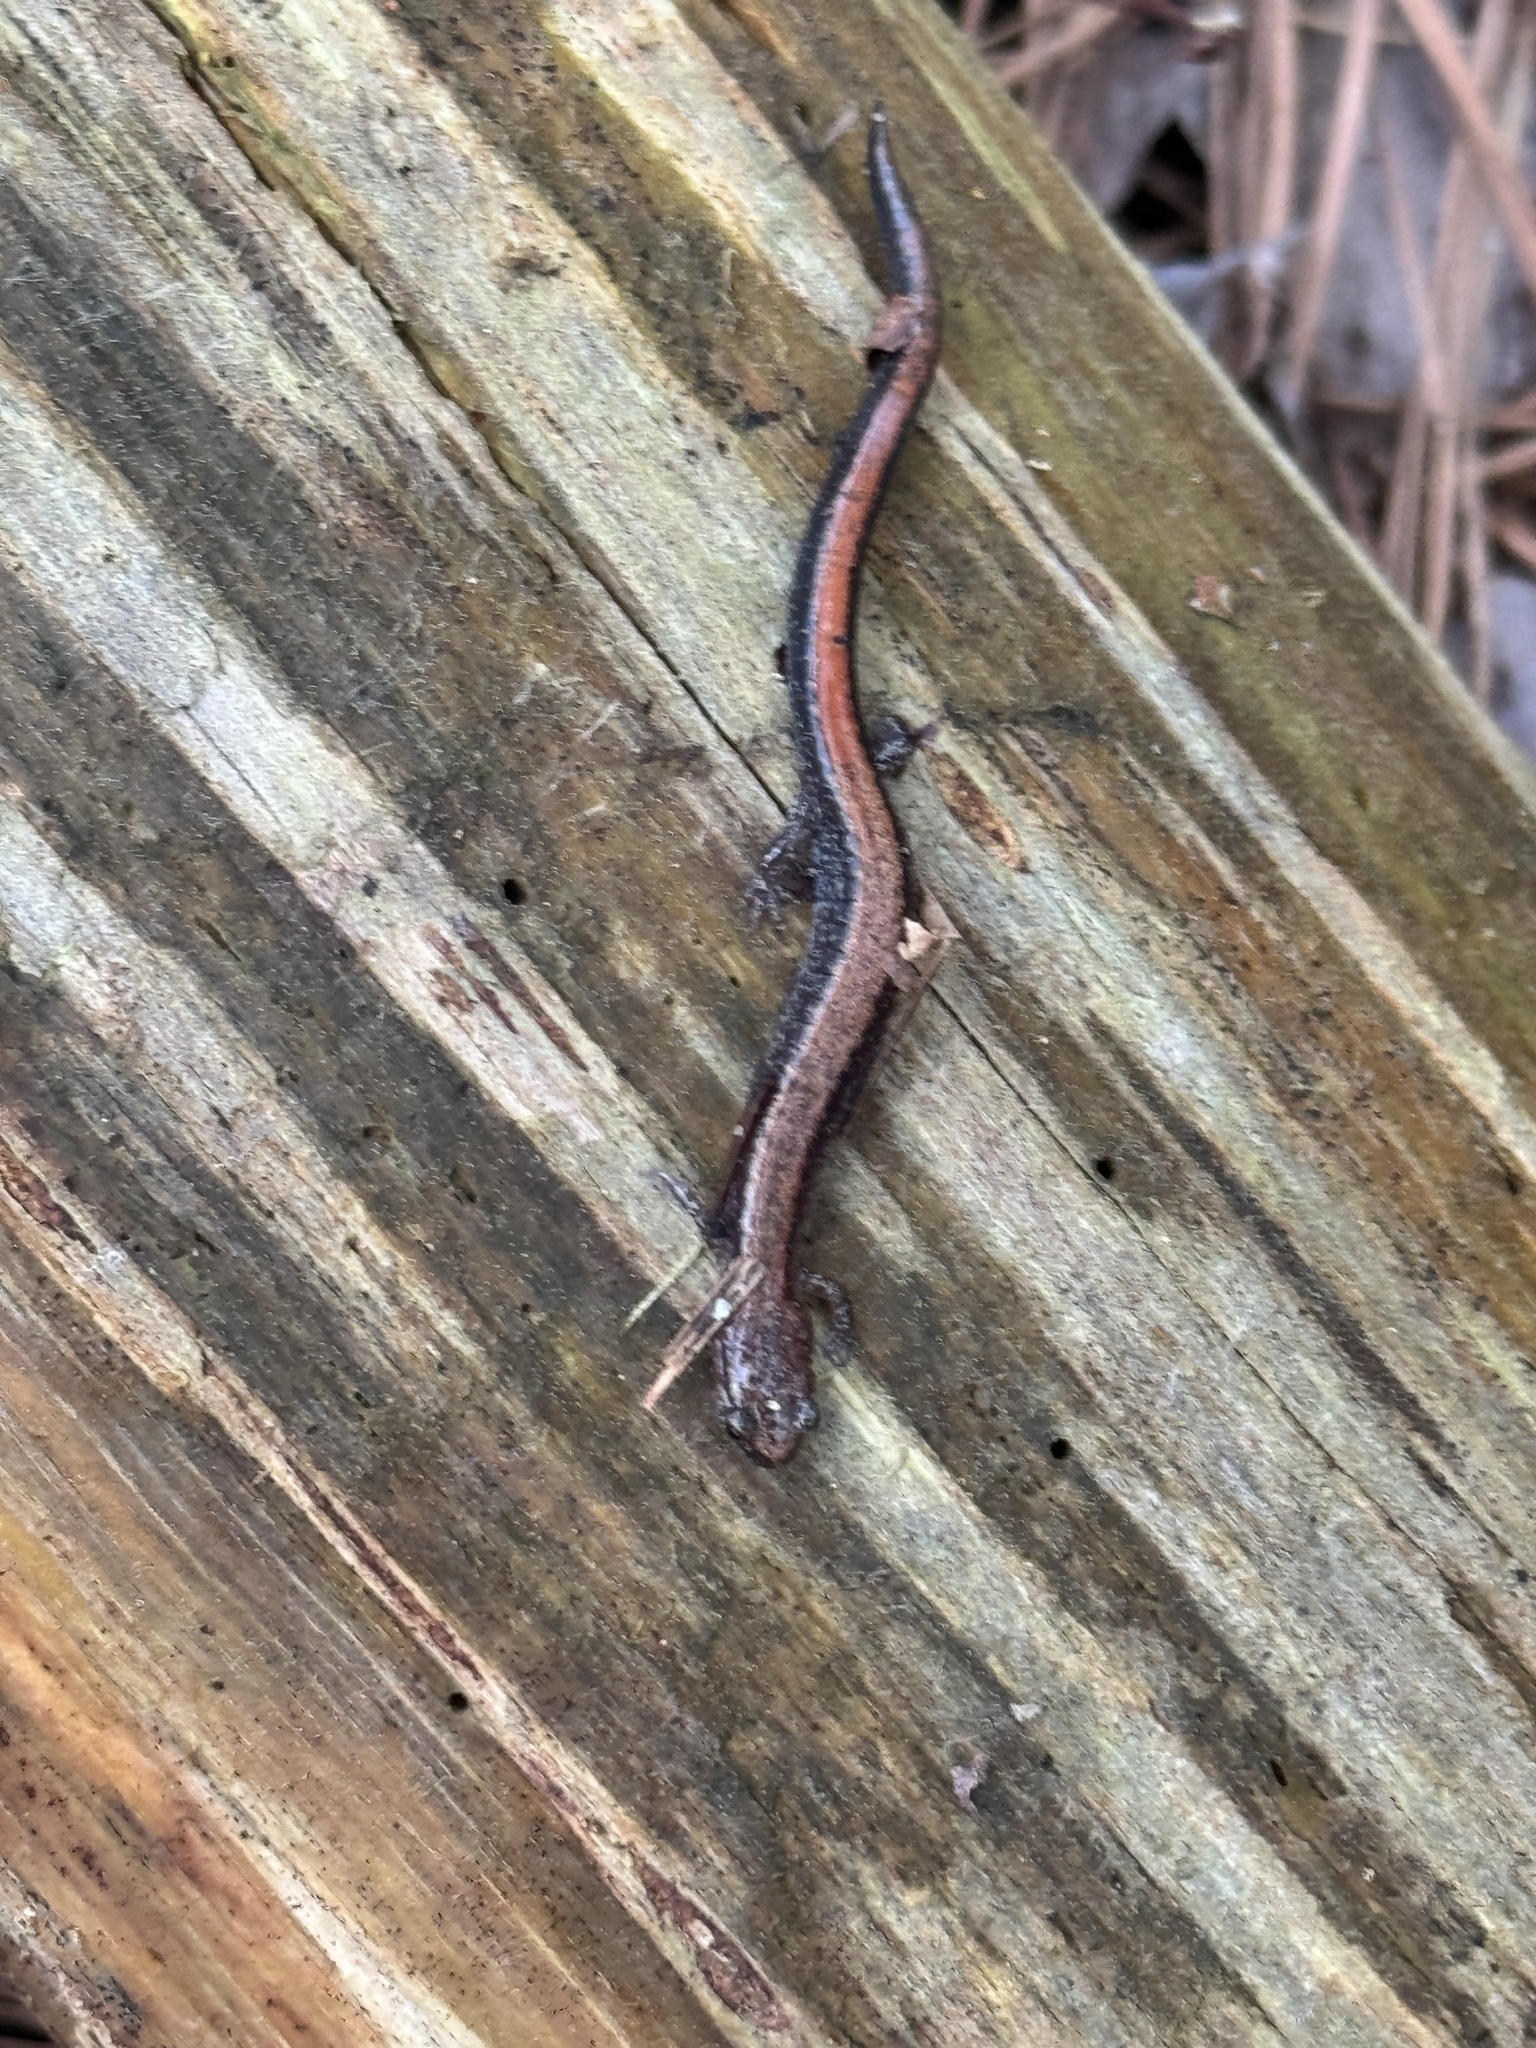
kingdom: Animalia
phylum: Chordata
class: Amphibia
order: Caudata
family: Plethodontidae
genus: Plethodon
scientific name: Plethodon cinereus
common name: Redback salamander
